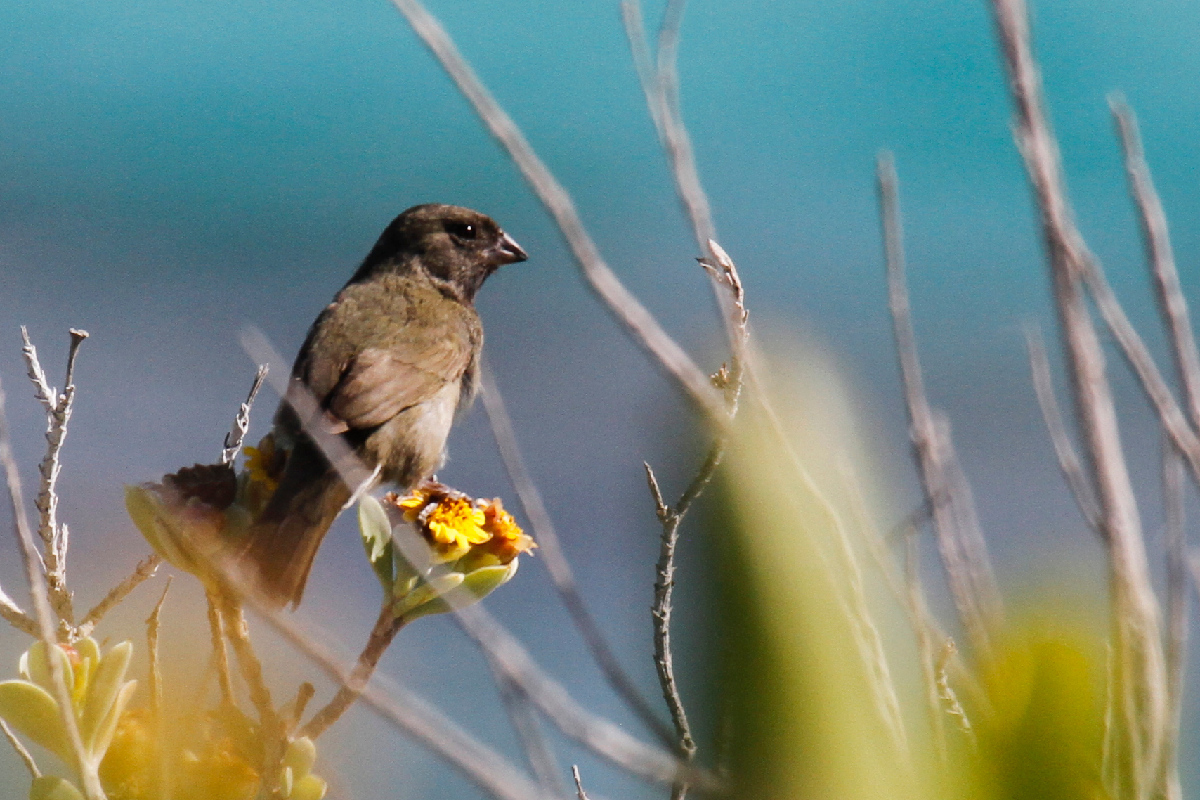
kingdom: Animalia
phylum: Chordata
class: Aves
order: Passeriformes
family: Thraupidae
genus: Melanospiza
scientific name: Melanospiza bicolor
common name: Black-faced grassquit
